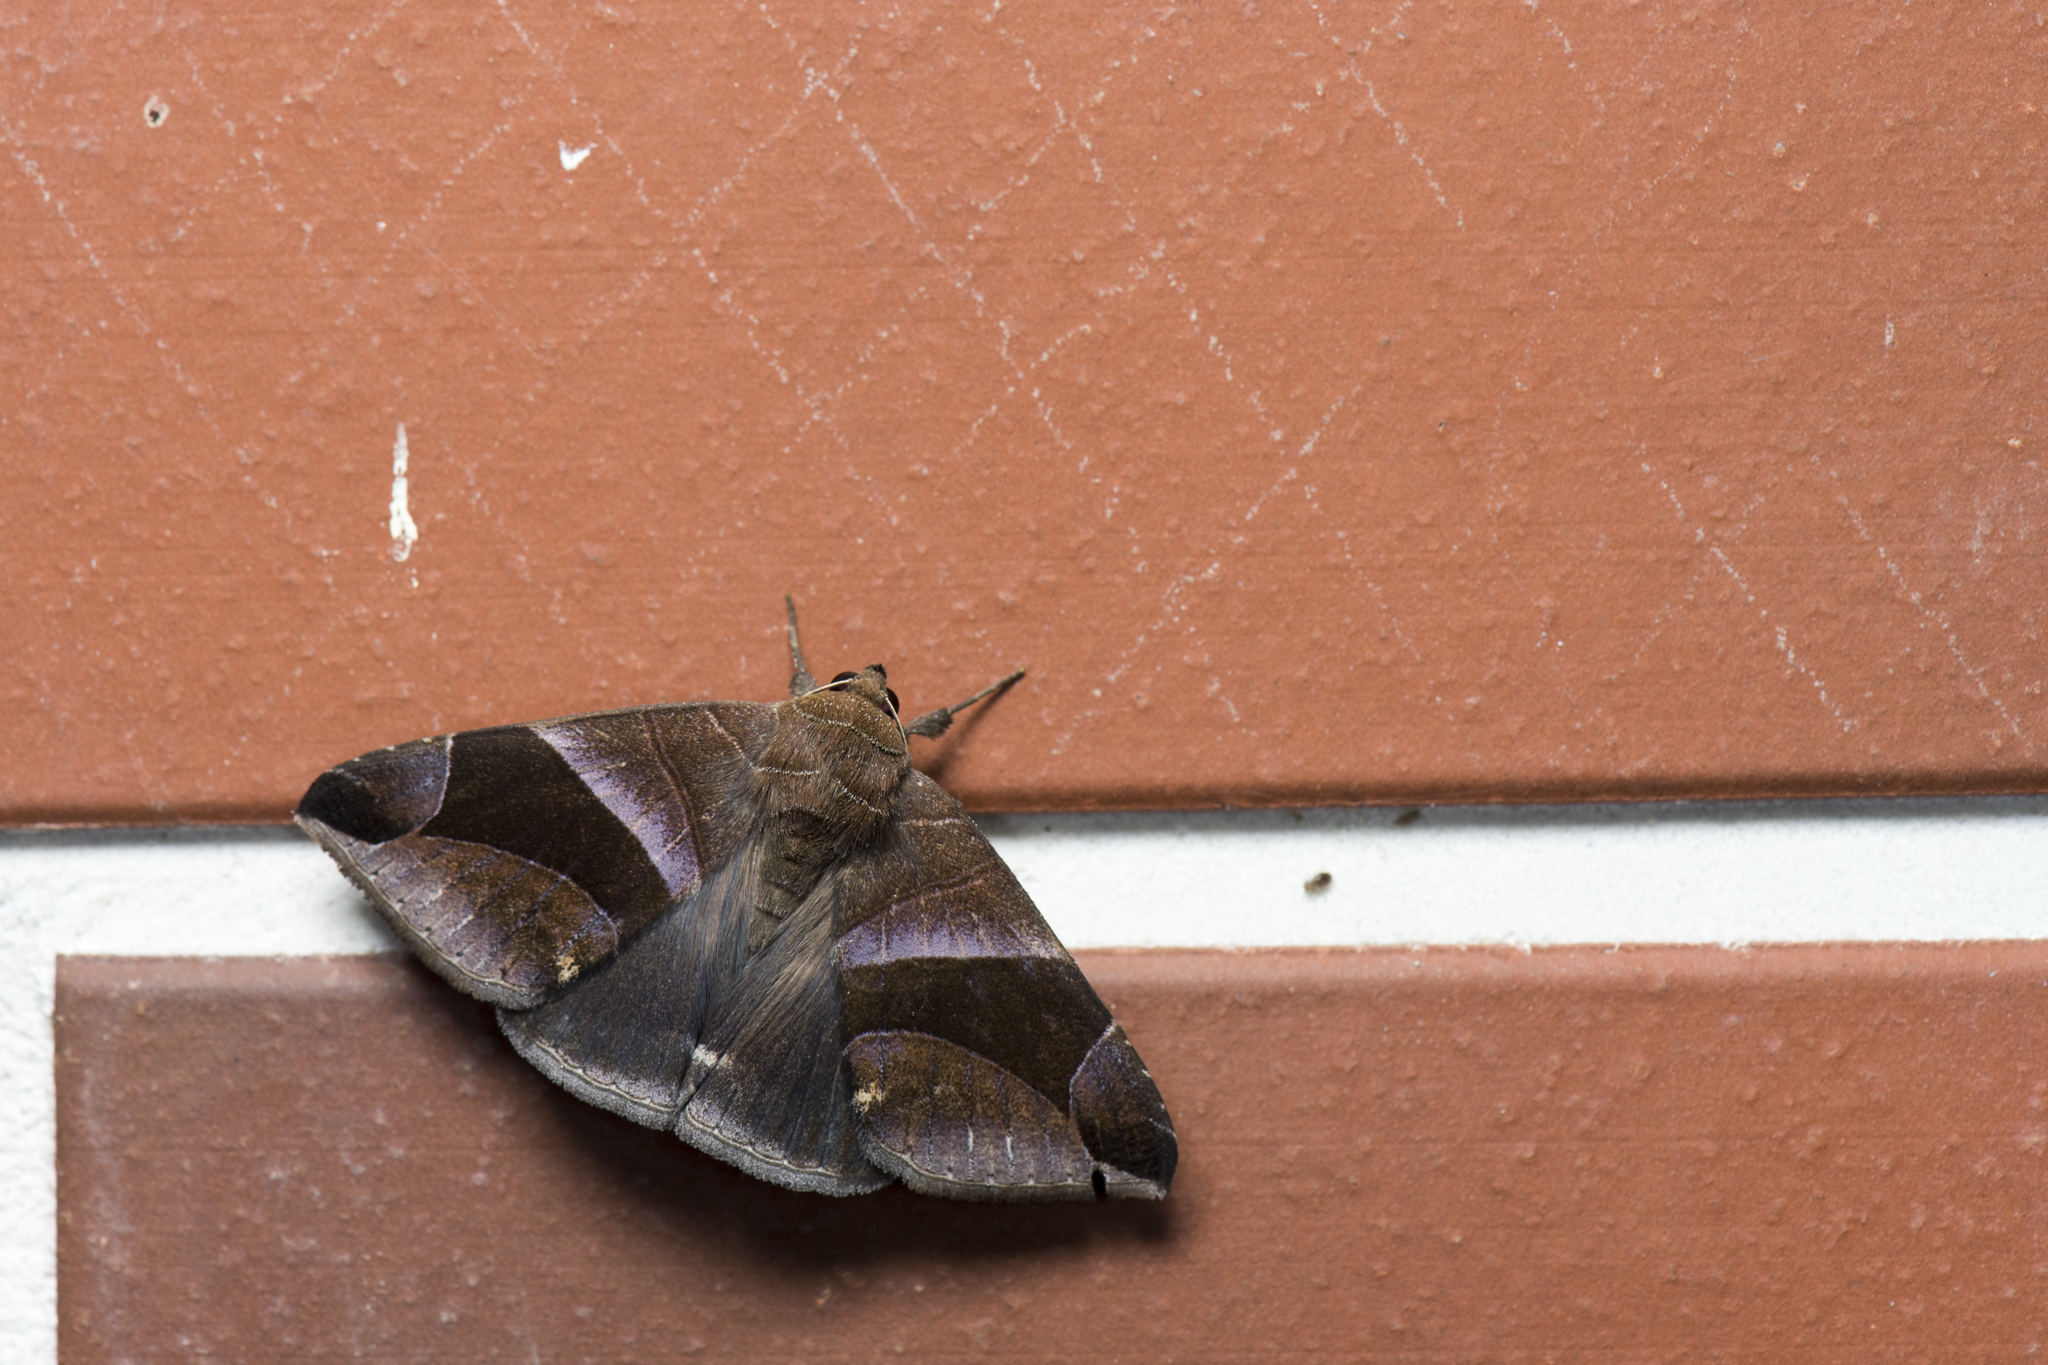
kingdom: Animalia
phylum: Arthropoda
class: Insecta
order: Lepidoptera
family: Erebidae
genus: Bastilla
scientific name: Bastilla acuta
